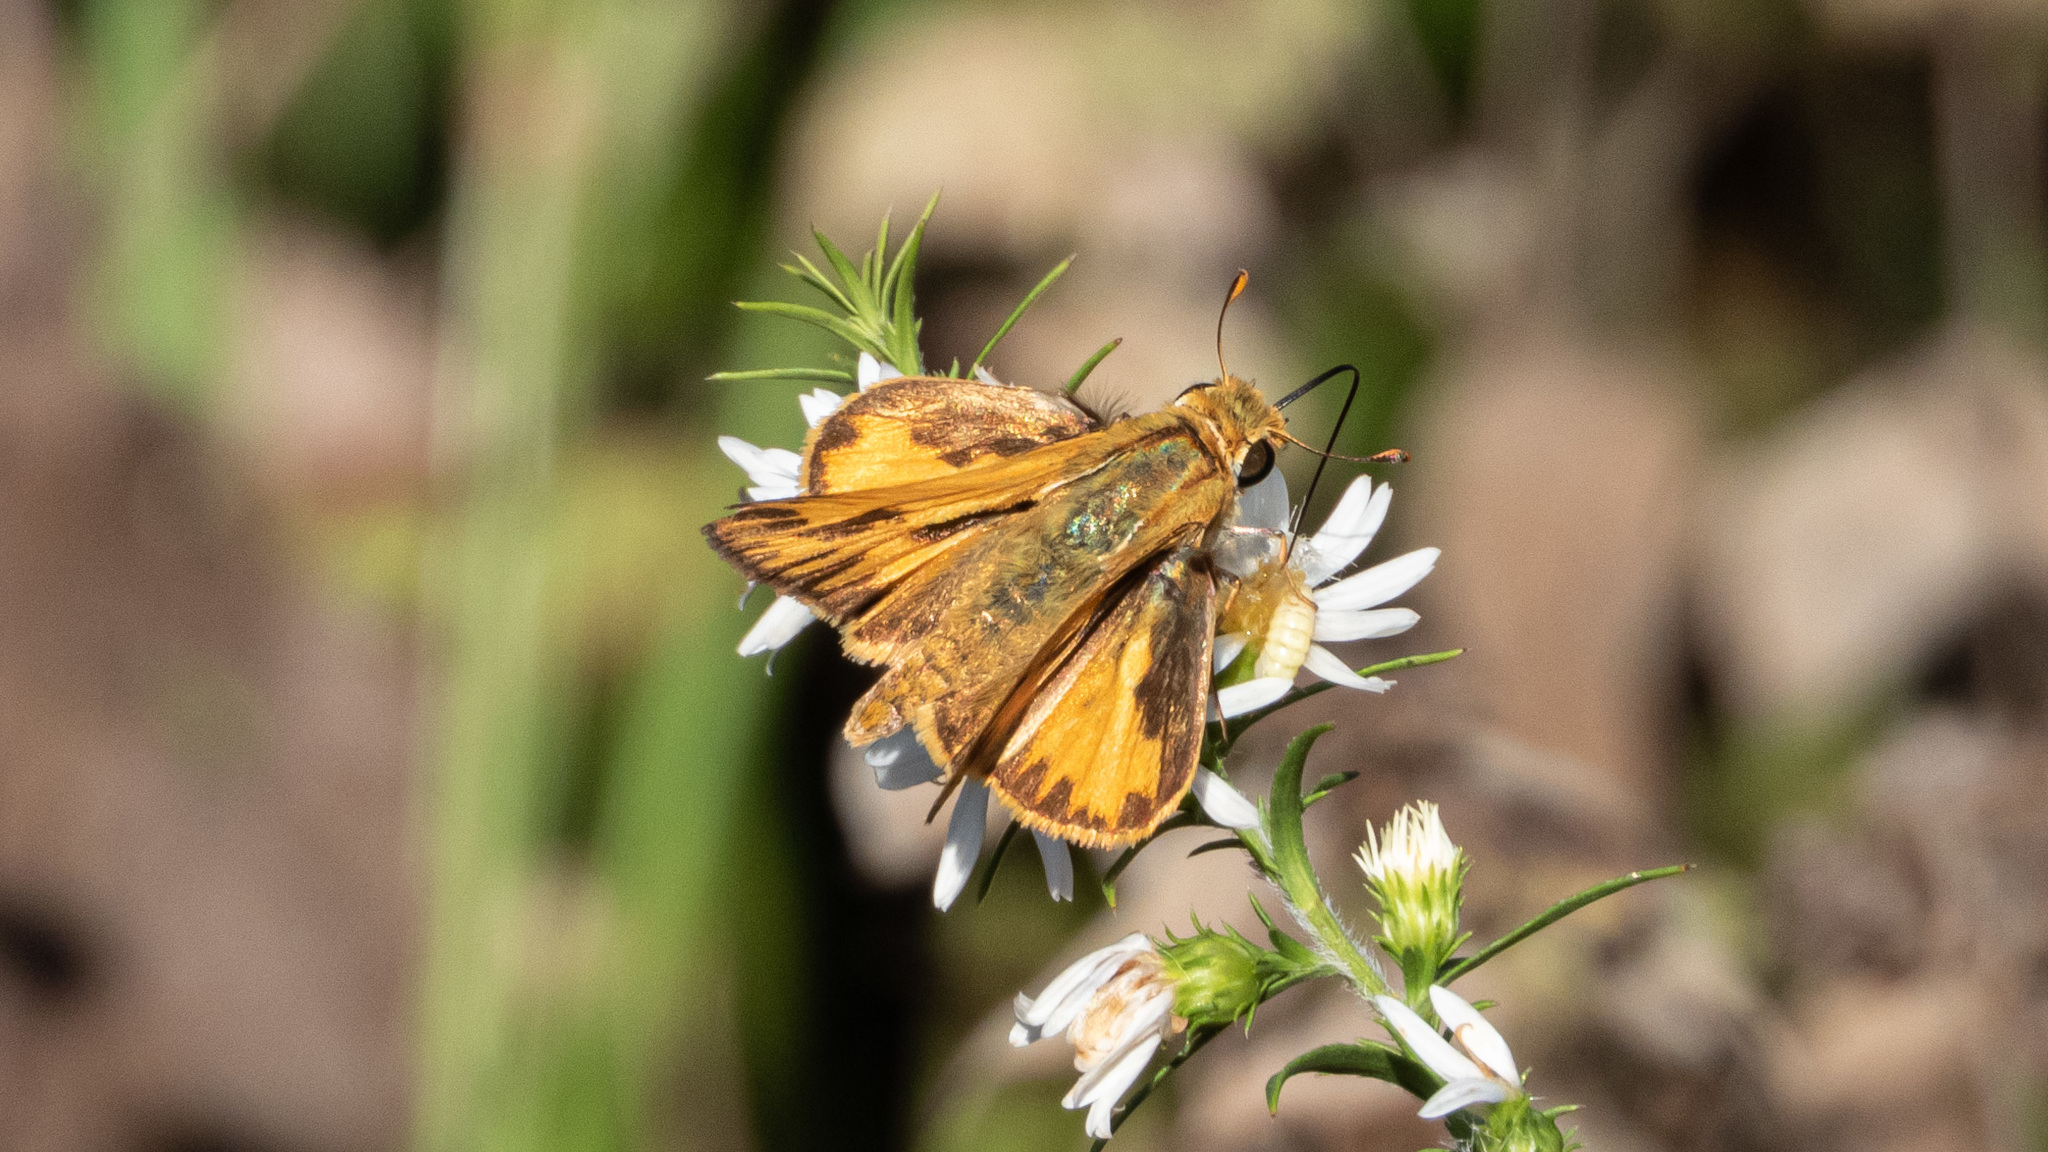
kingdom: Animalia
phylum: Arthropoda
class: Insecta
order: Lepidoptera
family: Hesperiidae
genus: Hylephila
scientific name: Hylephila phyleus
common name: Fiery skipper
